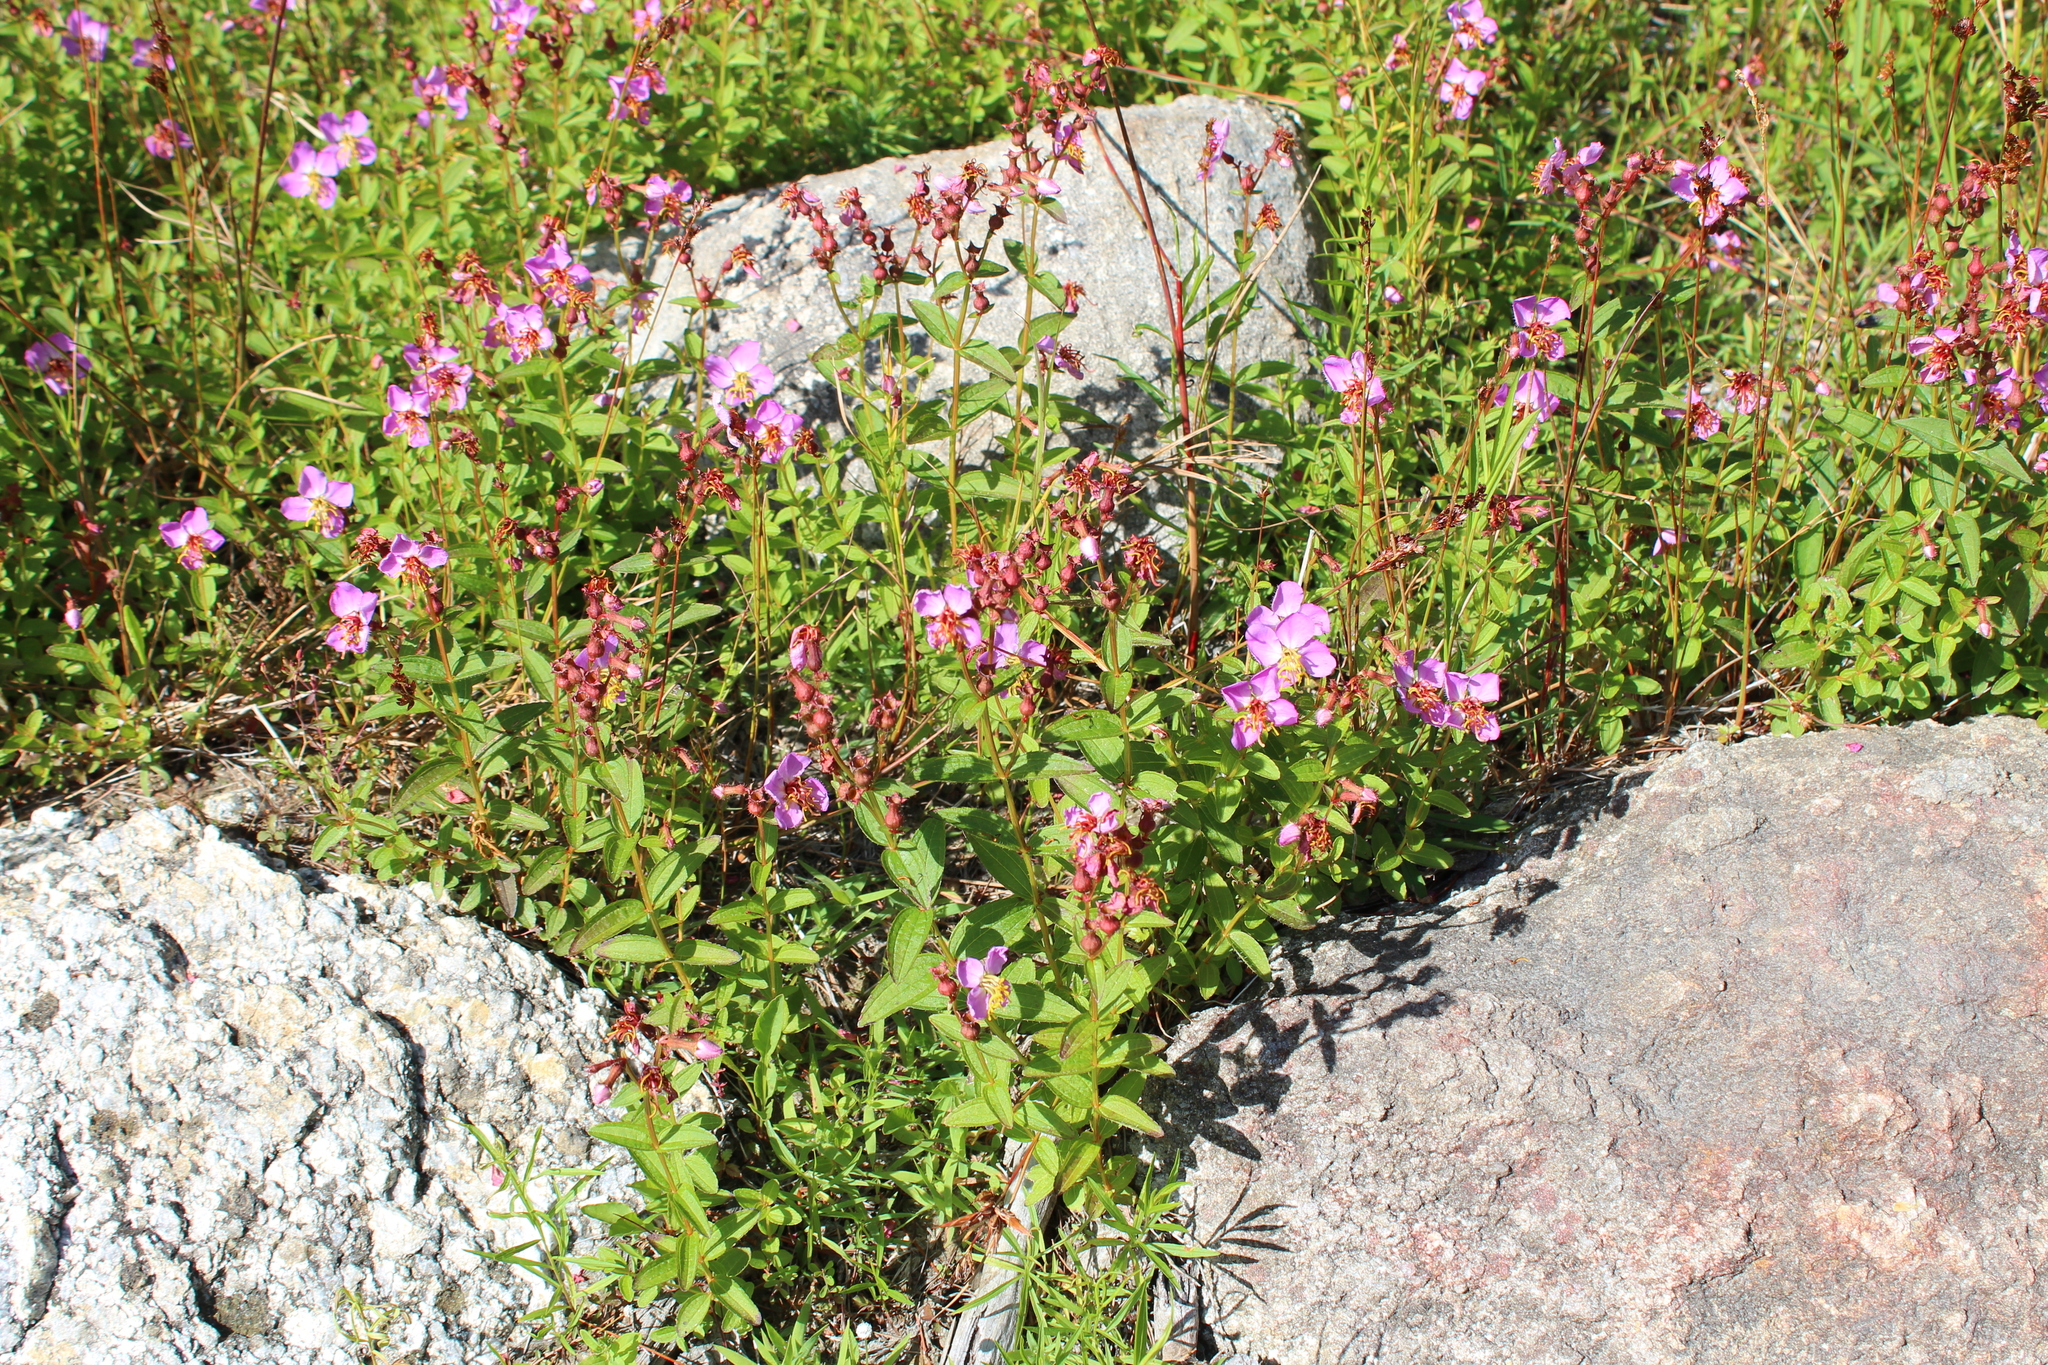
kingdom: Plantae
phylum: Tracheophyta
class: Magnoliopsida
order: Myrtales
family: Melastomataceae
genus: Rhexia
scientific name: Rhexia virginica
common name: Common meadow beauty
